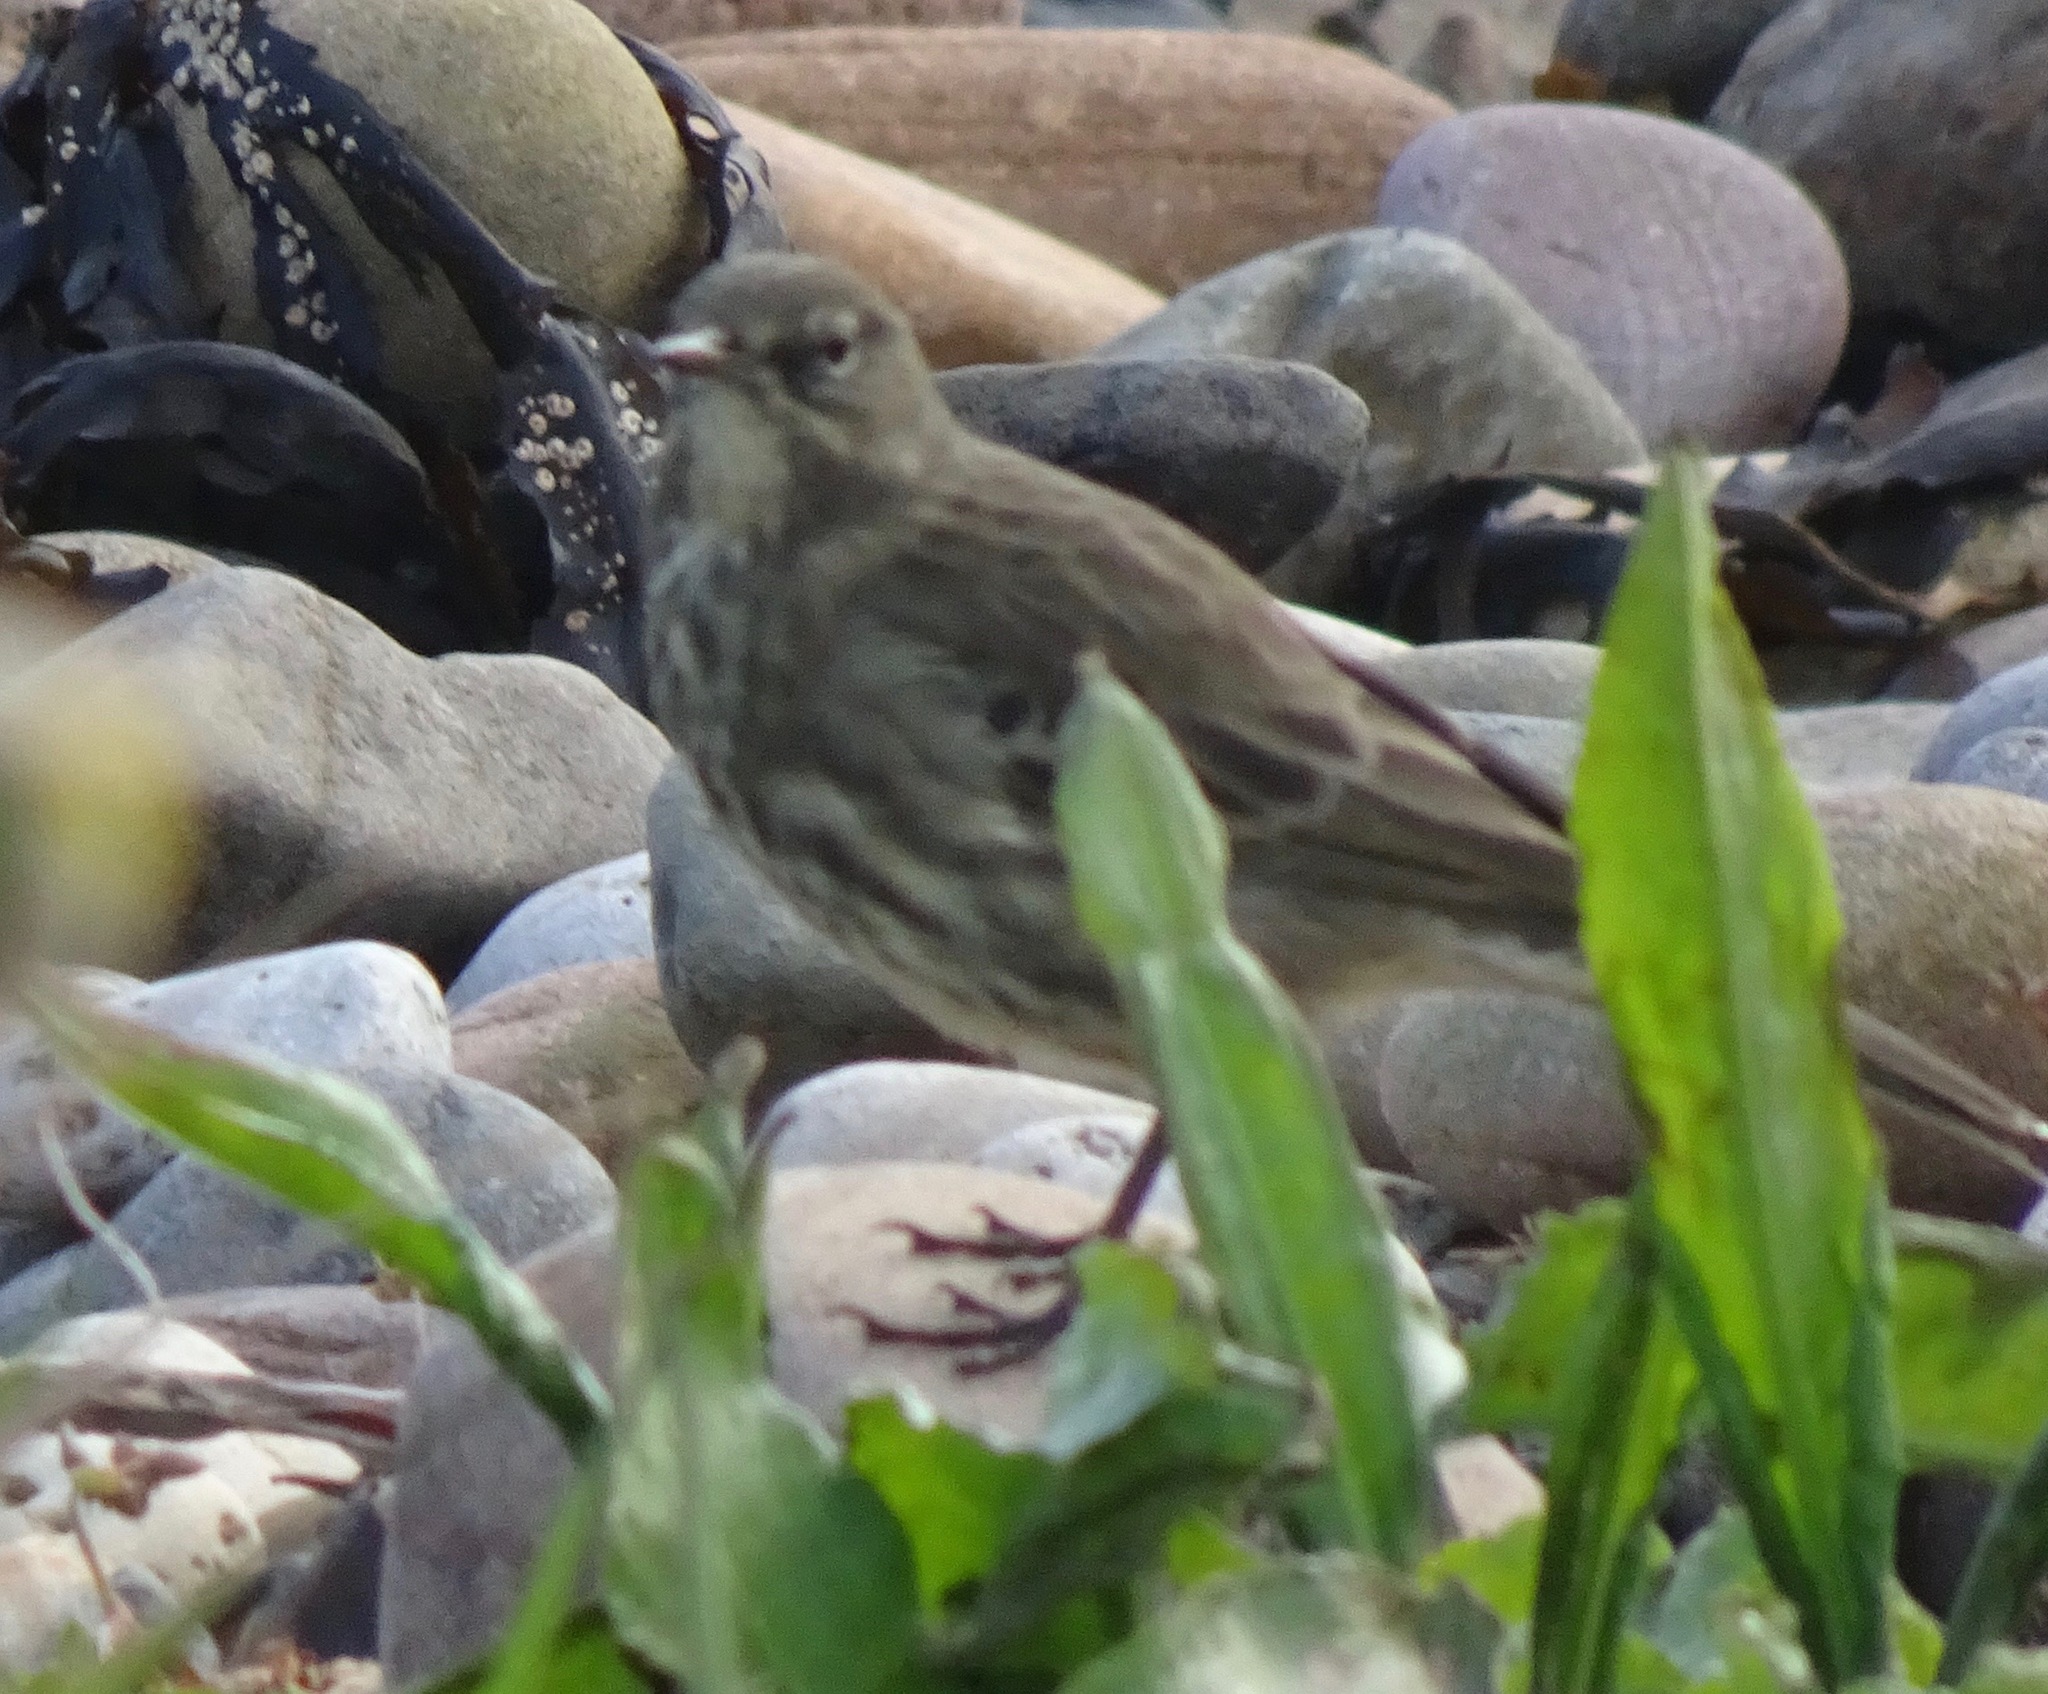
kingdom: Animalia
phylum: Chordata
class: Aves
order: Passeriformes
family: Motacillidae
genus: Anthus
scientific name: Anthus petrosus
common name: Eurasian rock pipit
